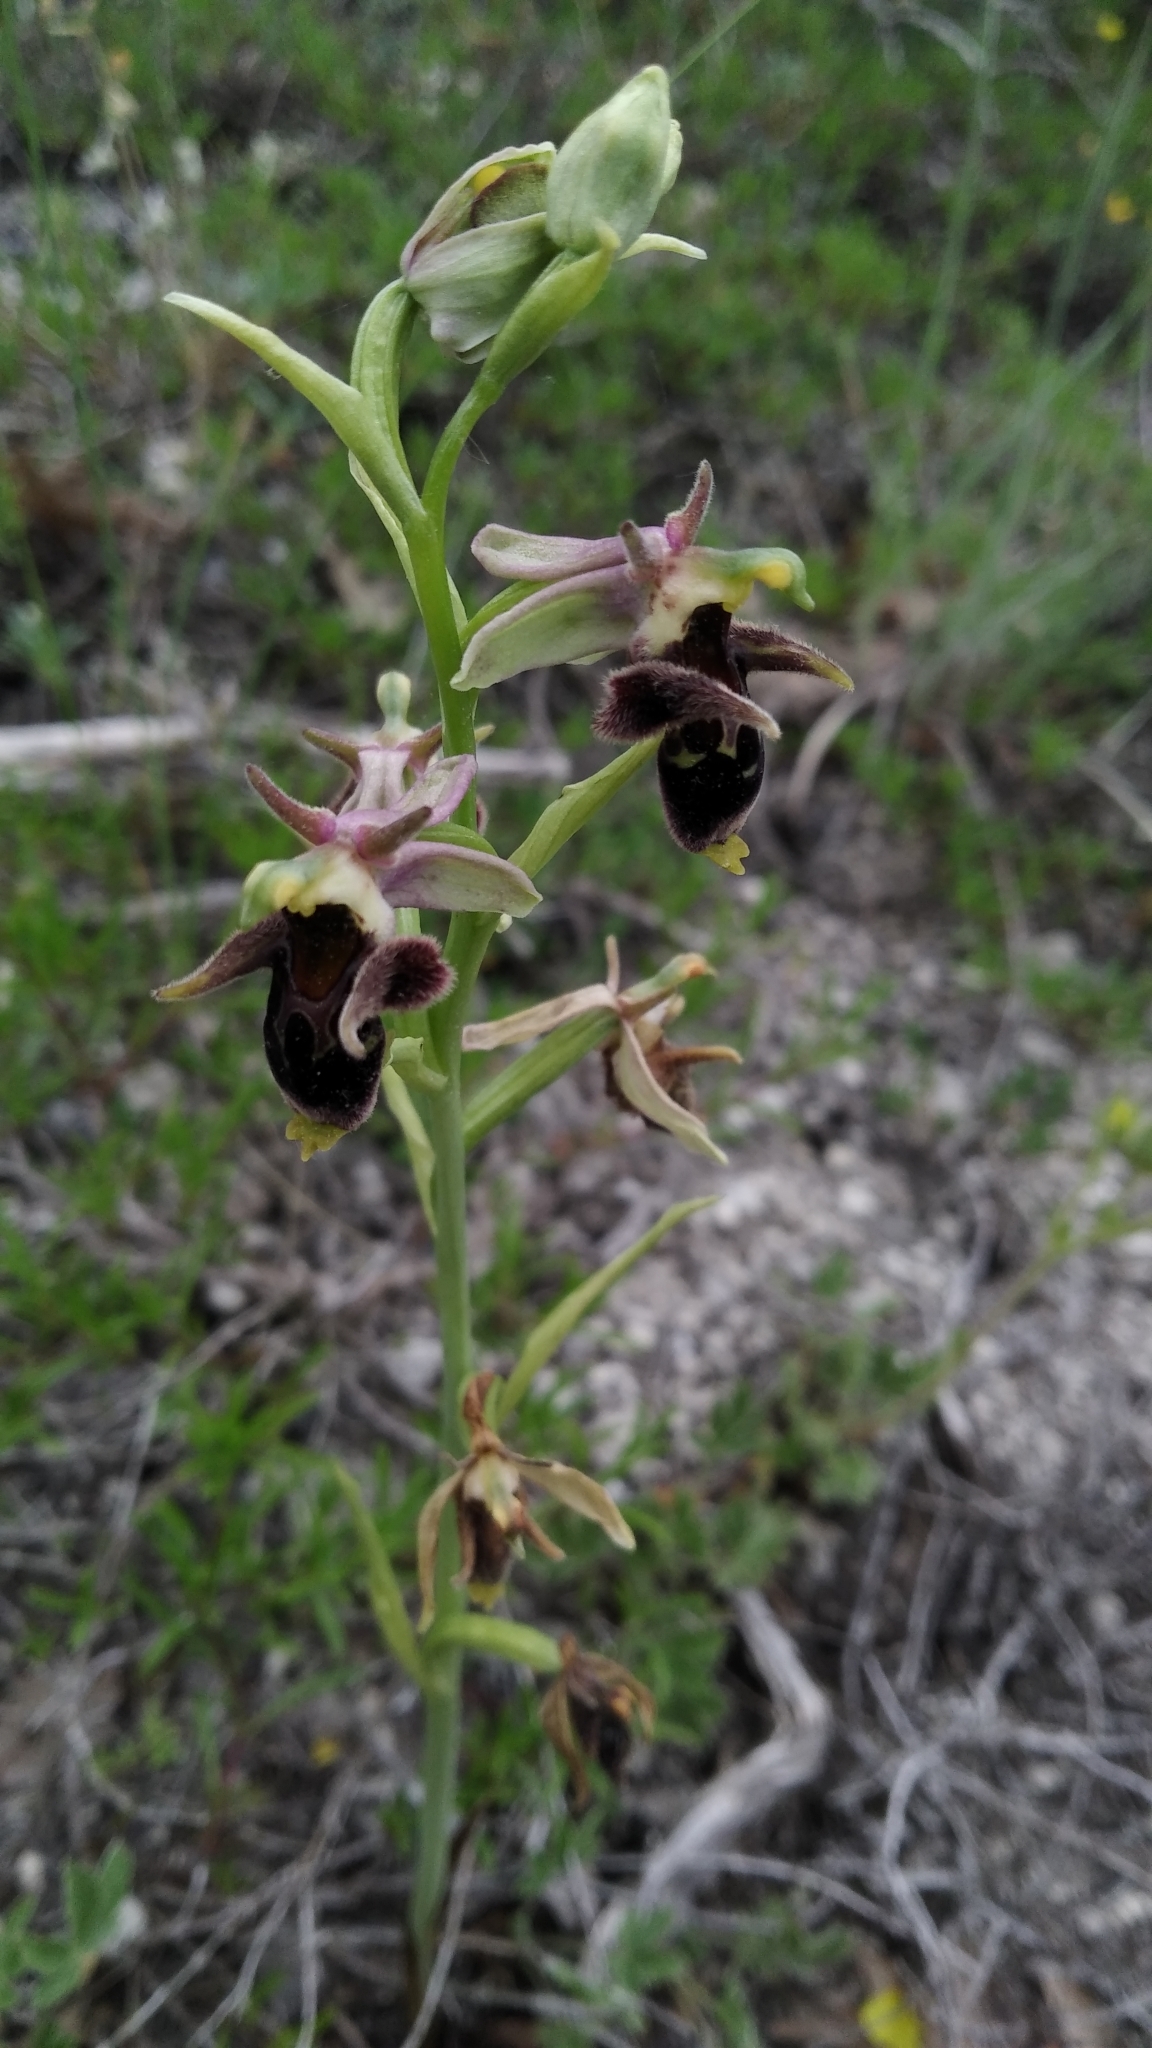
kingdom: Plantae
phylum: Tracheophyta
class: Liliopsida
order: Asparagales
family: Orchidaceae
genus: Ophrys
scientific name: Ophrys
